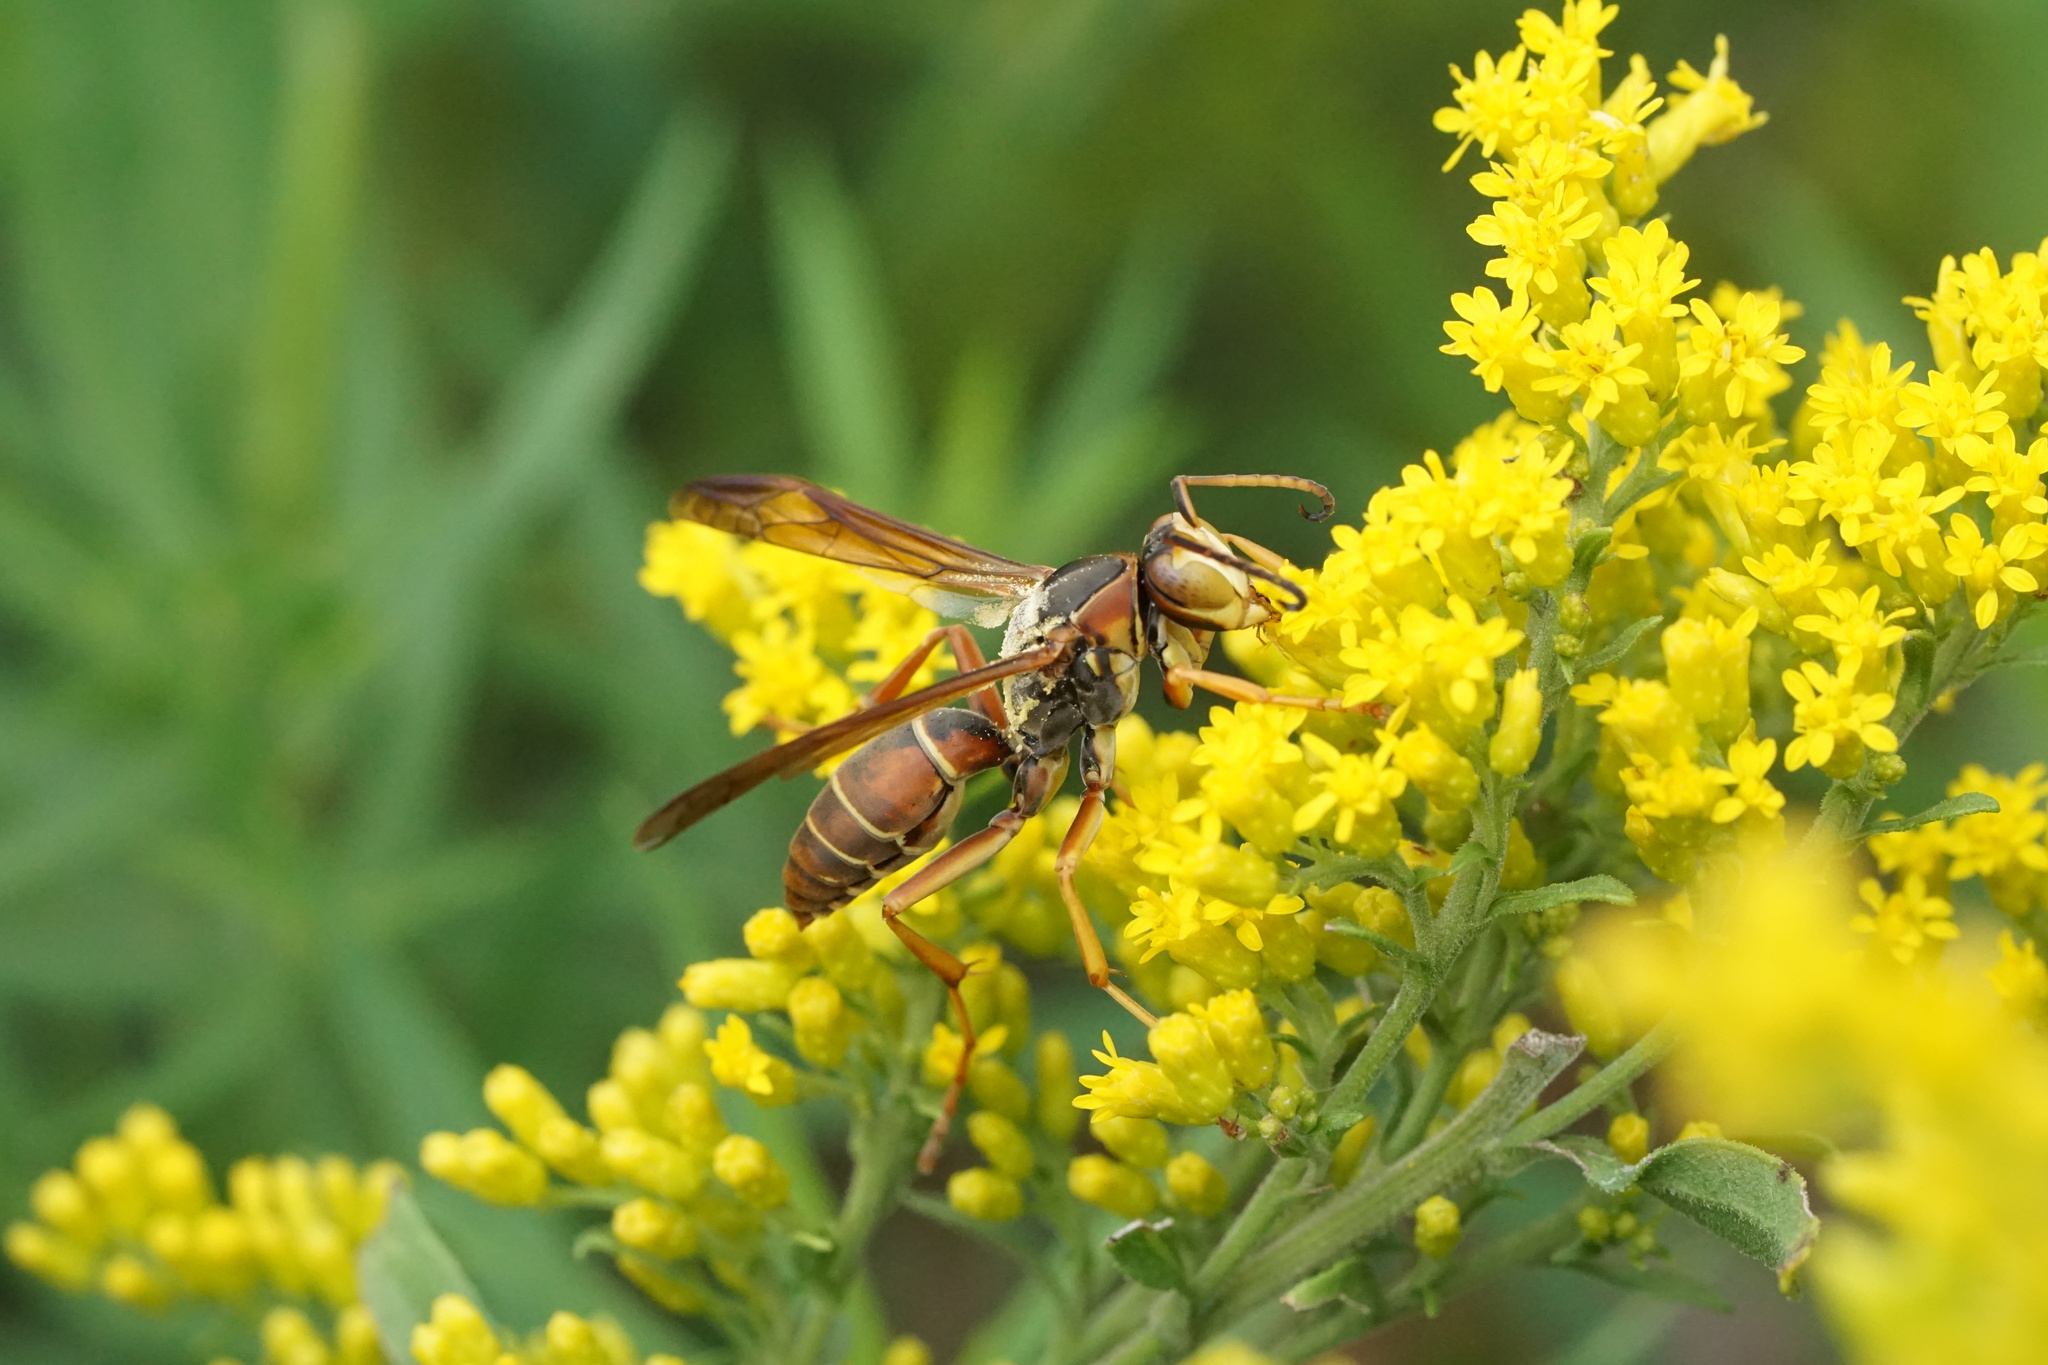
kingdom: Animalia
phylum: Arthropoda
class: Insecta
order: Hymenoptera
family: Eumenidae
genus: Polistes
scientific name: Polistes fuscatus
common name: Dark paper wasp
